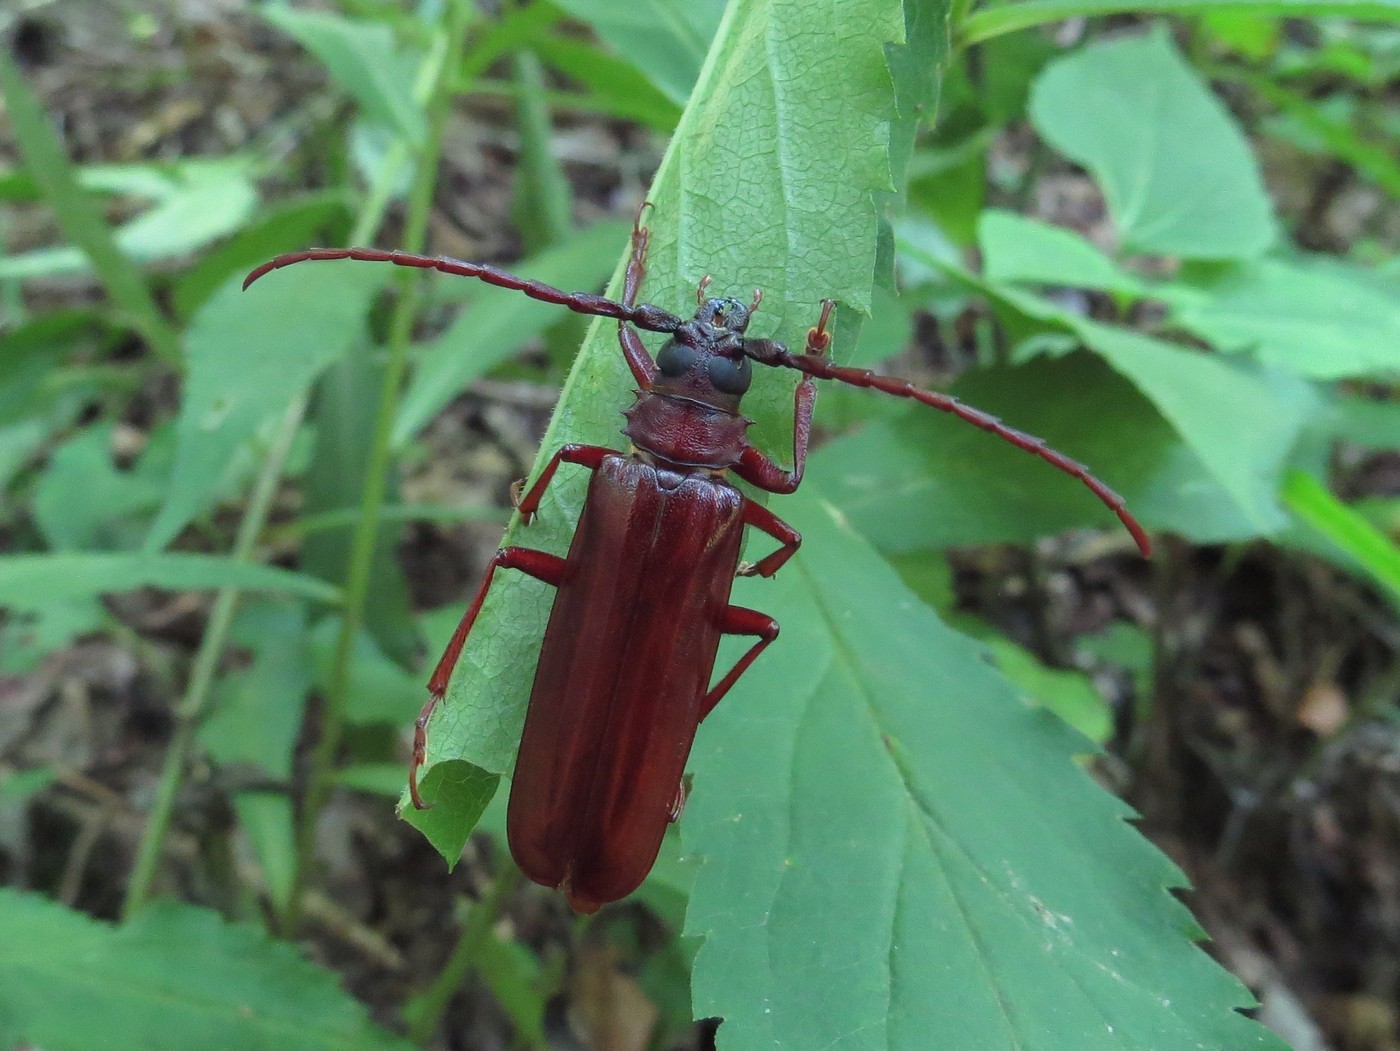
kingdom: Animalia
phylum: Arthropoda
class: Insecta
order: Coleoptera
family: Cerambycidae
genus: Orthosoma
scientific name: Orthosoma brunneum
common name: Brown prionid beetle
